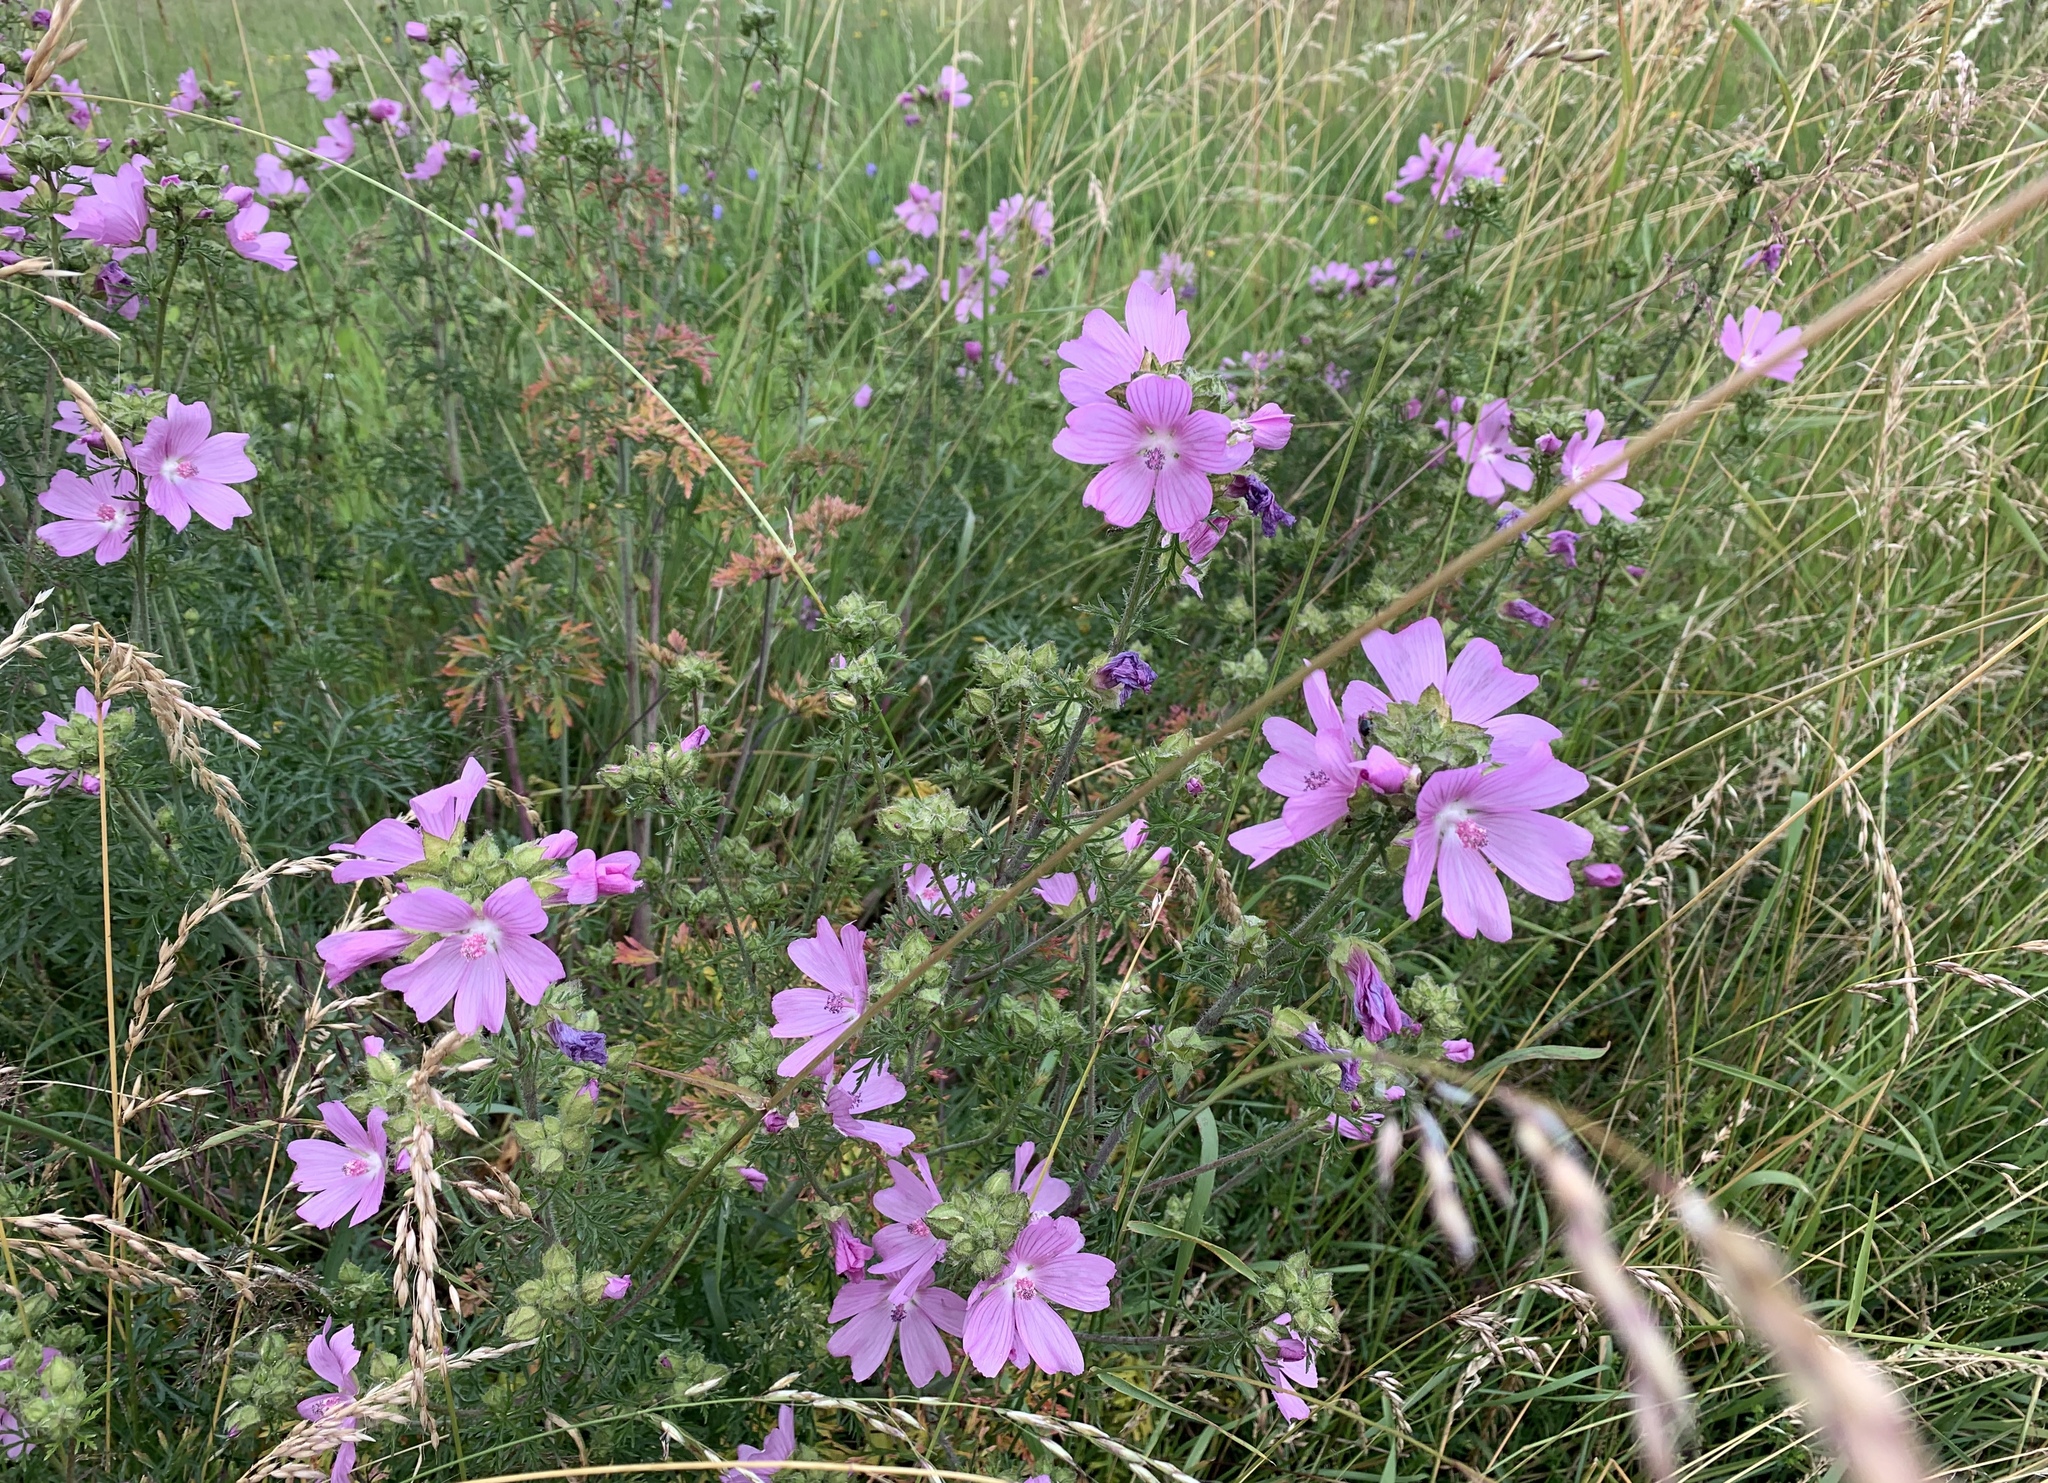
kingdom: Plantae
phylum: Tracheophyta
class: Magnoliopsida
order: Malvales
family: Malvaceae
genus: Malva
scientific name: Malva moschata
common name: Musk mallow
